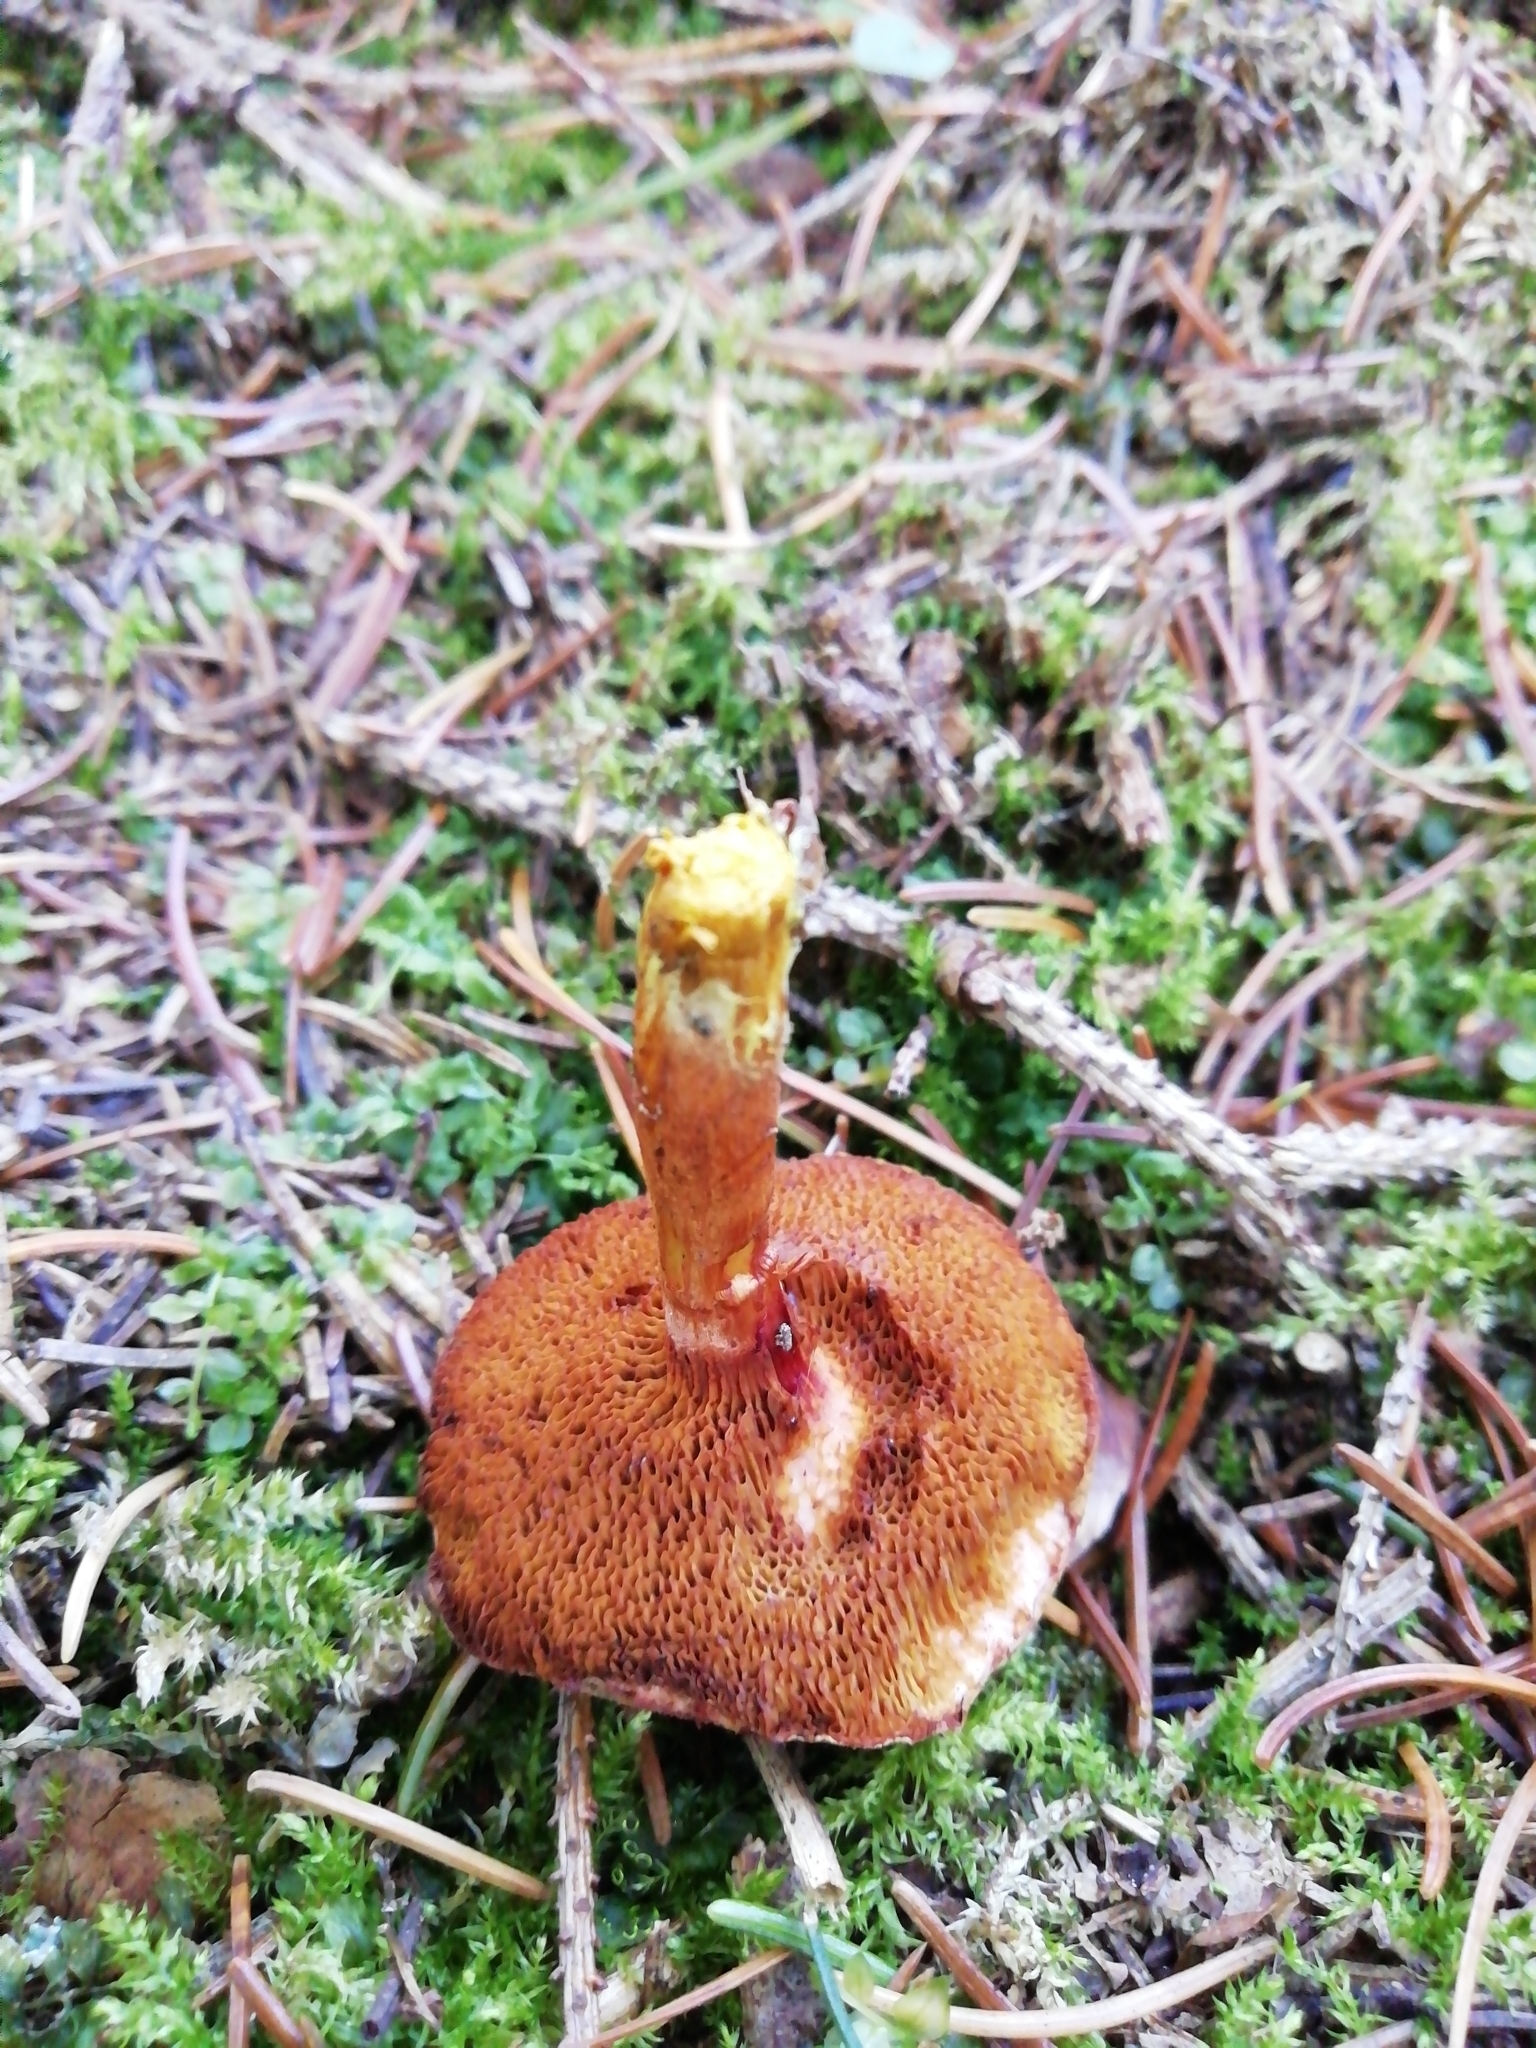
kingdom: Fungi
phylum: Basidiomycota
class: Agaricomycetes
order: Boletales
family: Boletaceae
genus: Chalciporus
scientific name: Chalciporus piperatus
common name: Peppery bolete
